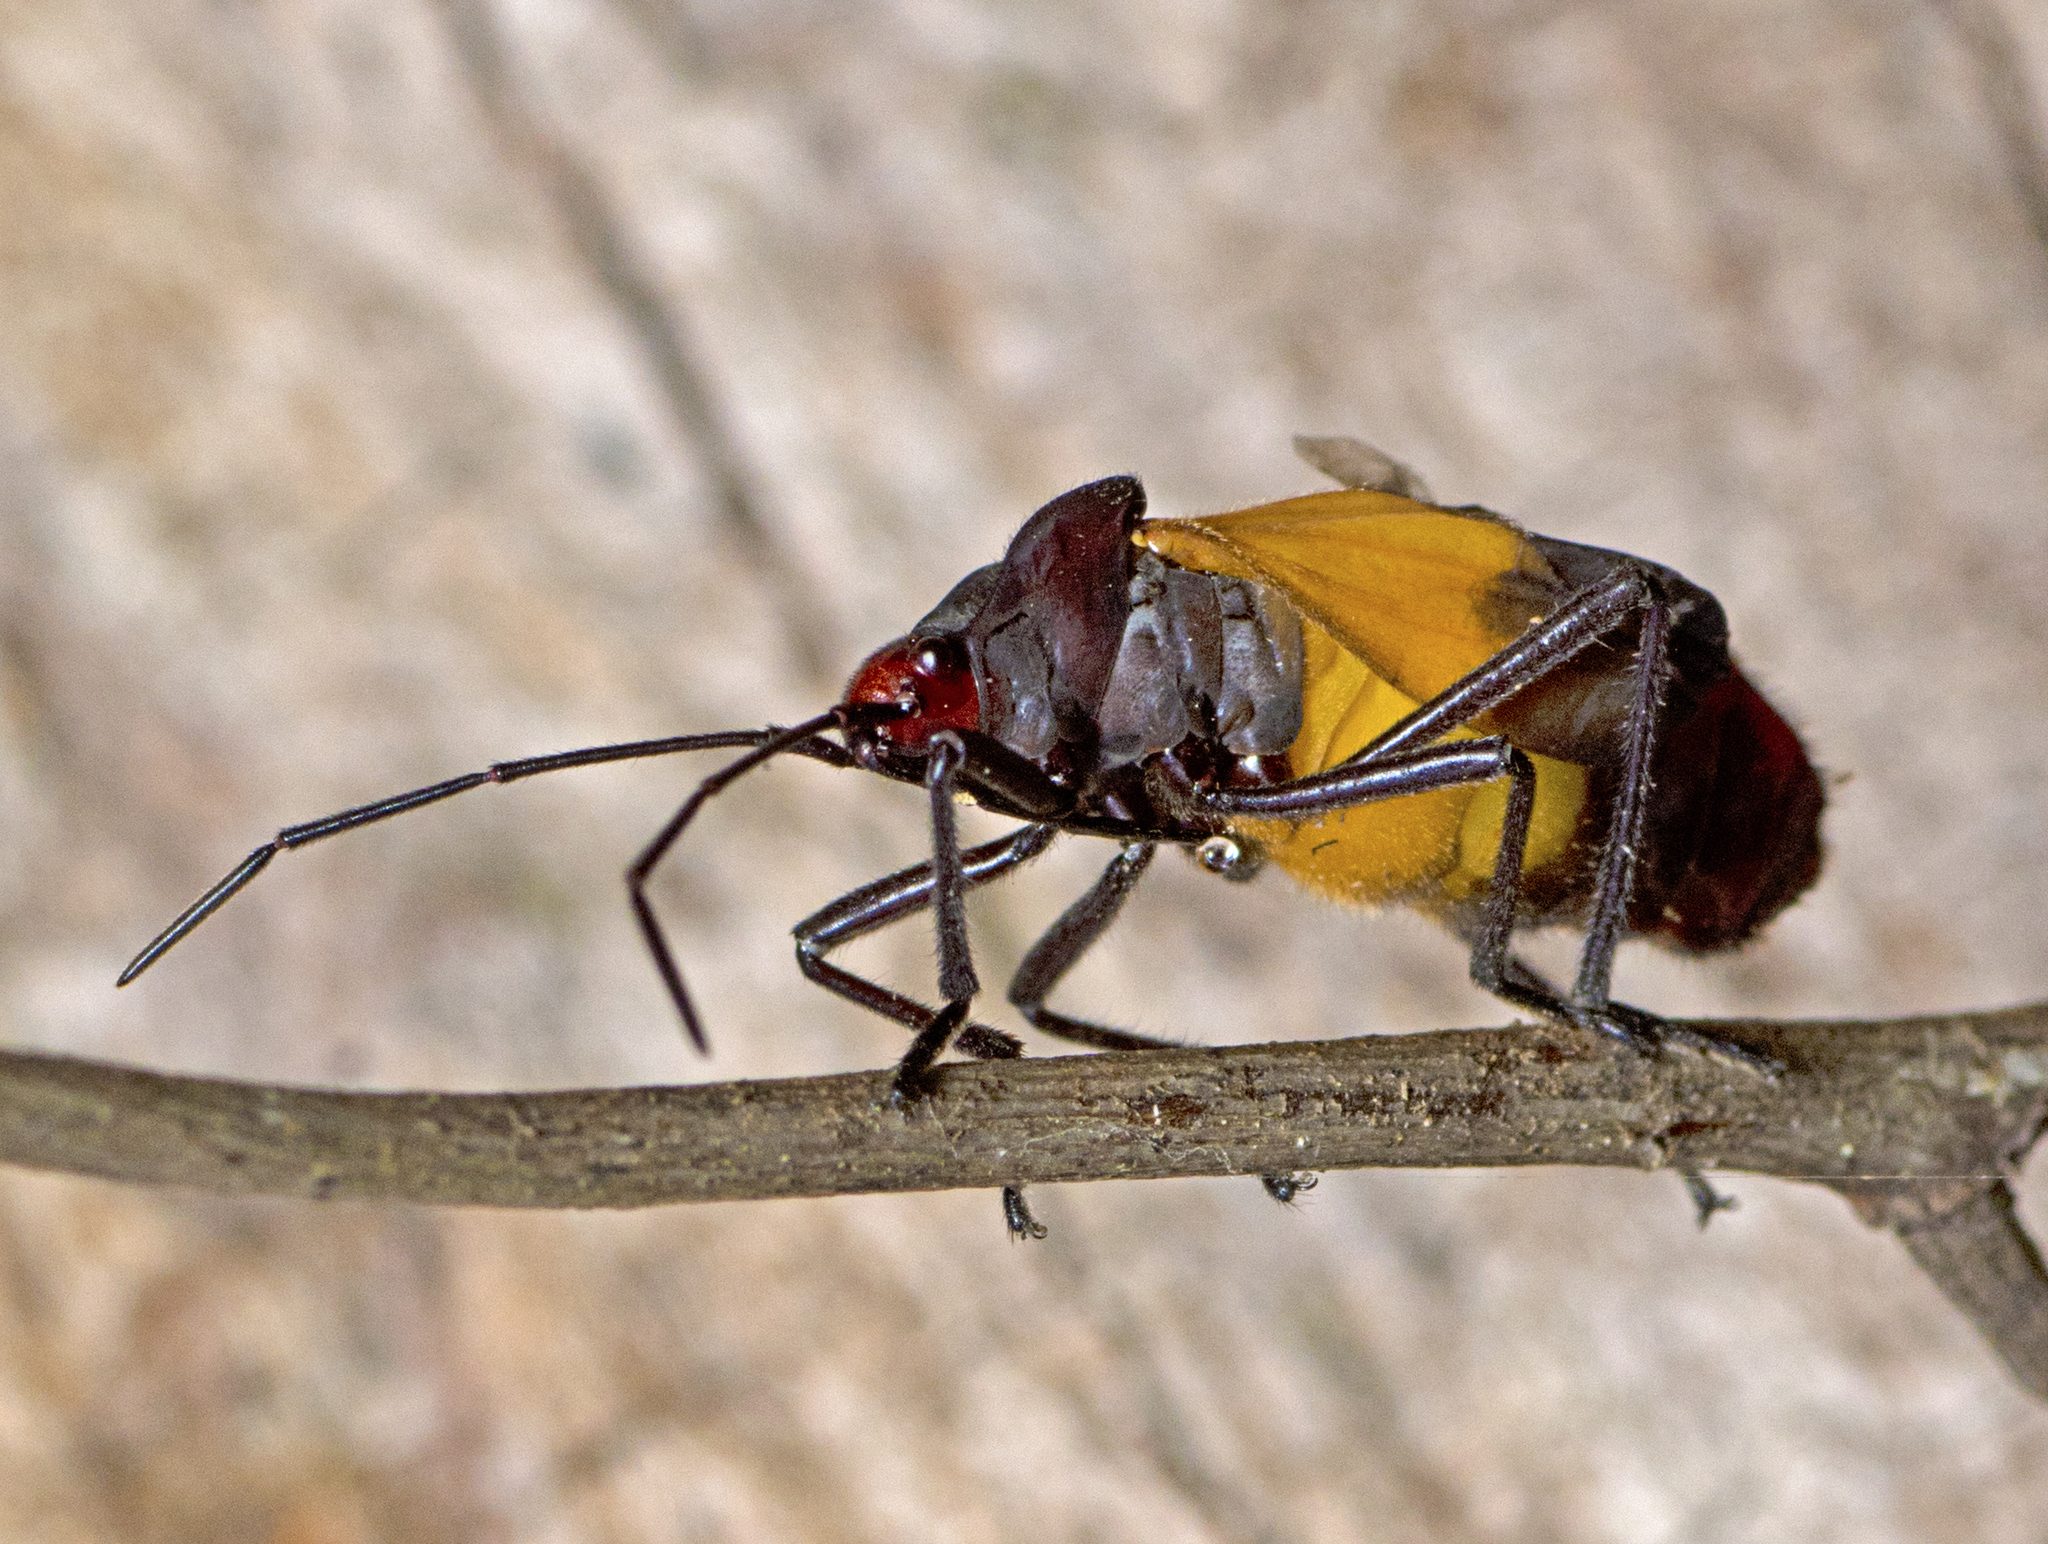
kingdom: Animalia
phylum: Arthropoda
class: Insecta
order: Hemiptera
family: Lygaeidae
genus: Oncopeltus
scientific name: Oncopeltus sordidus
